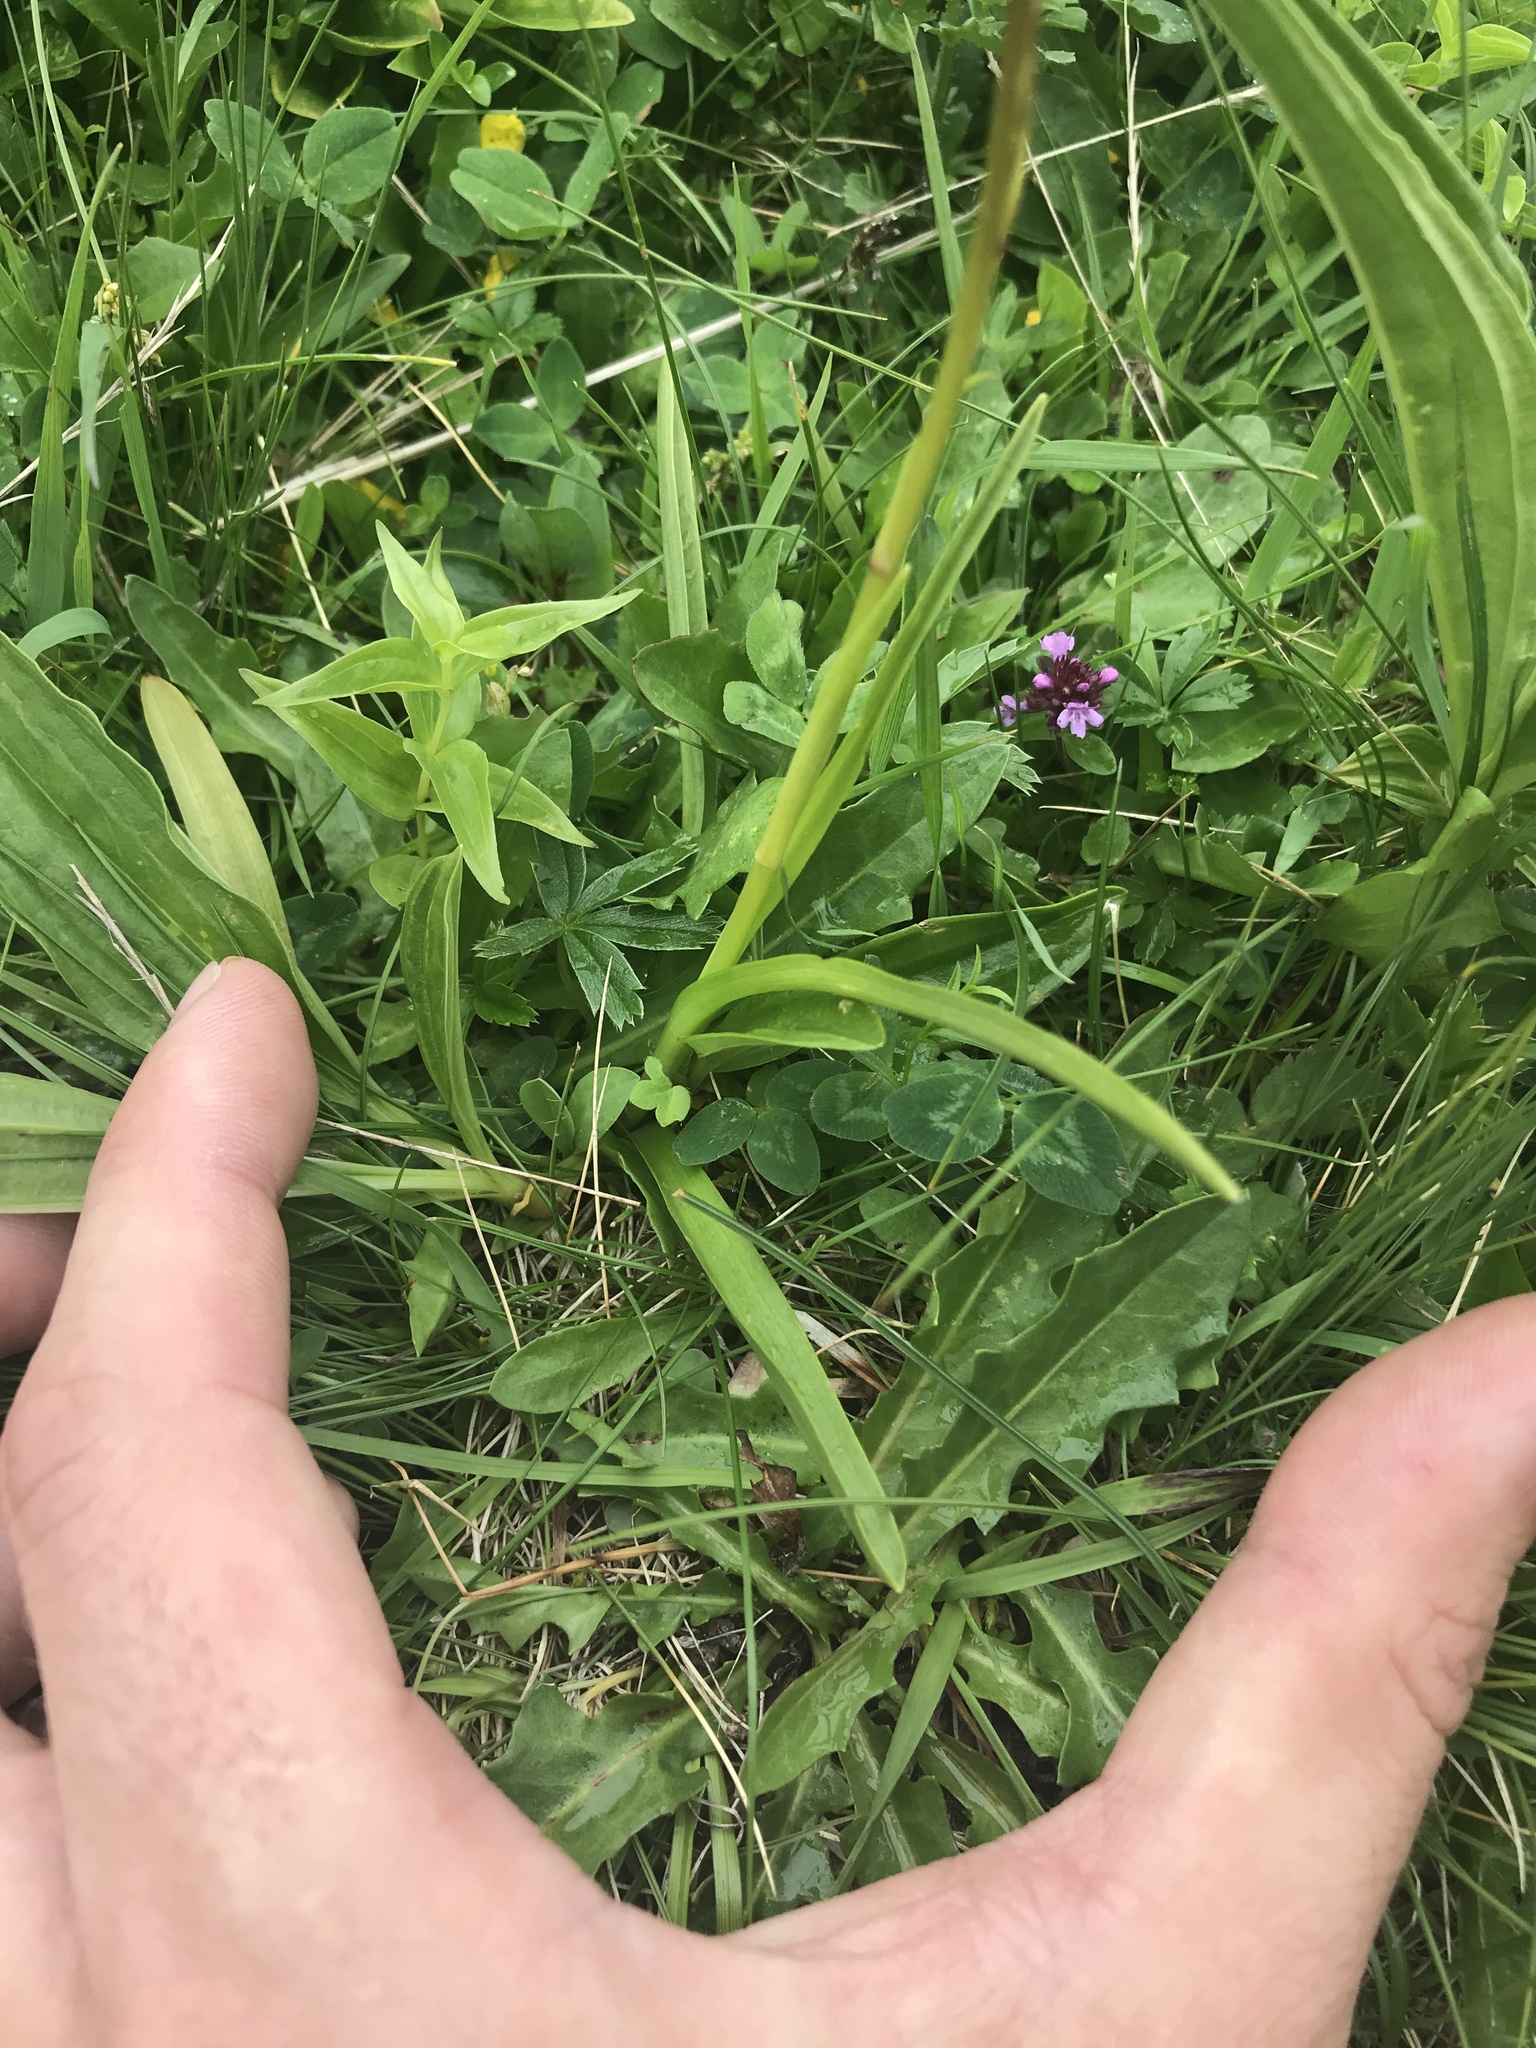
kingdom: Plantae
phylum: Tracheophyta
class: Liliopsida
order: Asparagales
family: Orchidaceae
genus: Gymnadenia
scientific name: Gymnadenia conopsea
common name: Fragrant orchid
